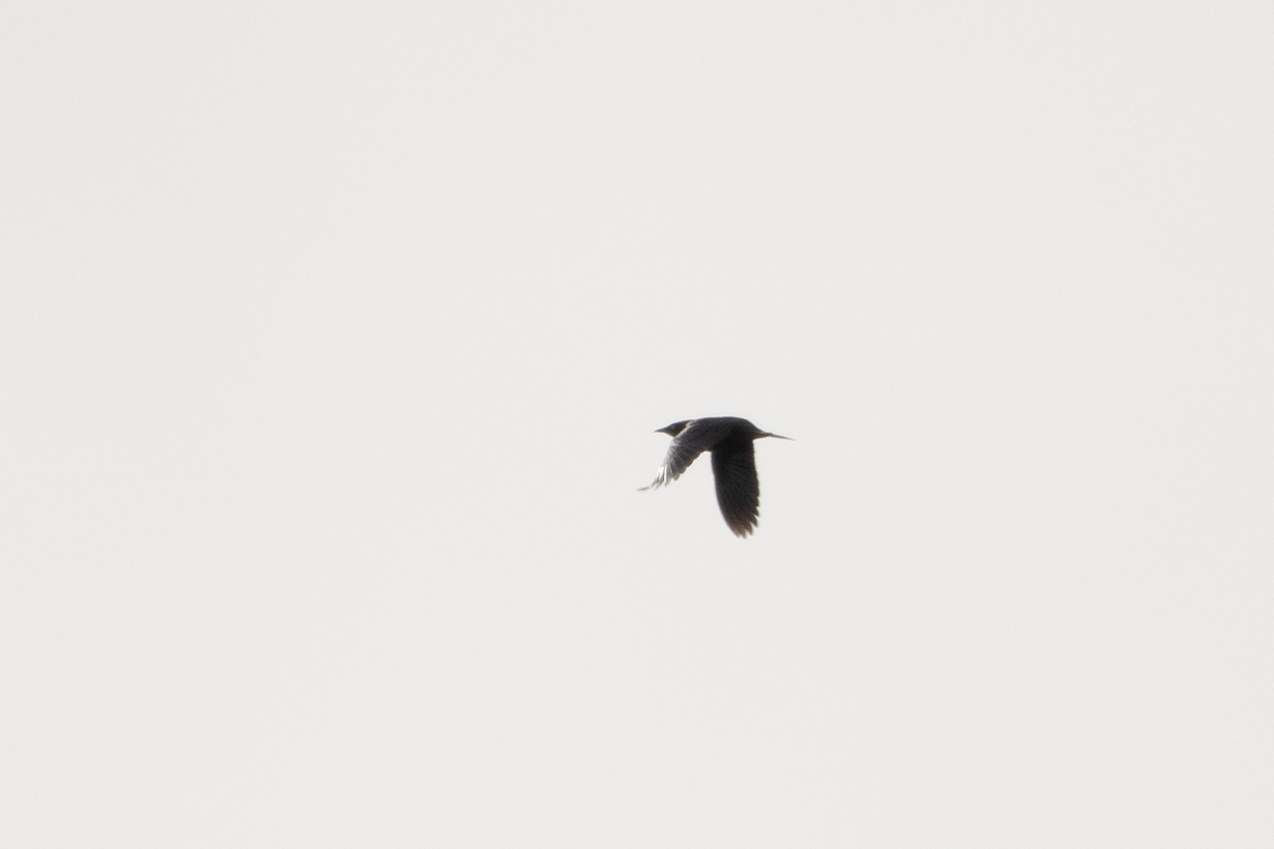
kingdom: Animalia
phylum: Chordata
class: Aves
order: Passeriformes
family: Icteridae
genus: Euphagus
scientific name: Euphagus carolinus
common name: Rusty blackbird
